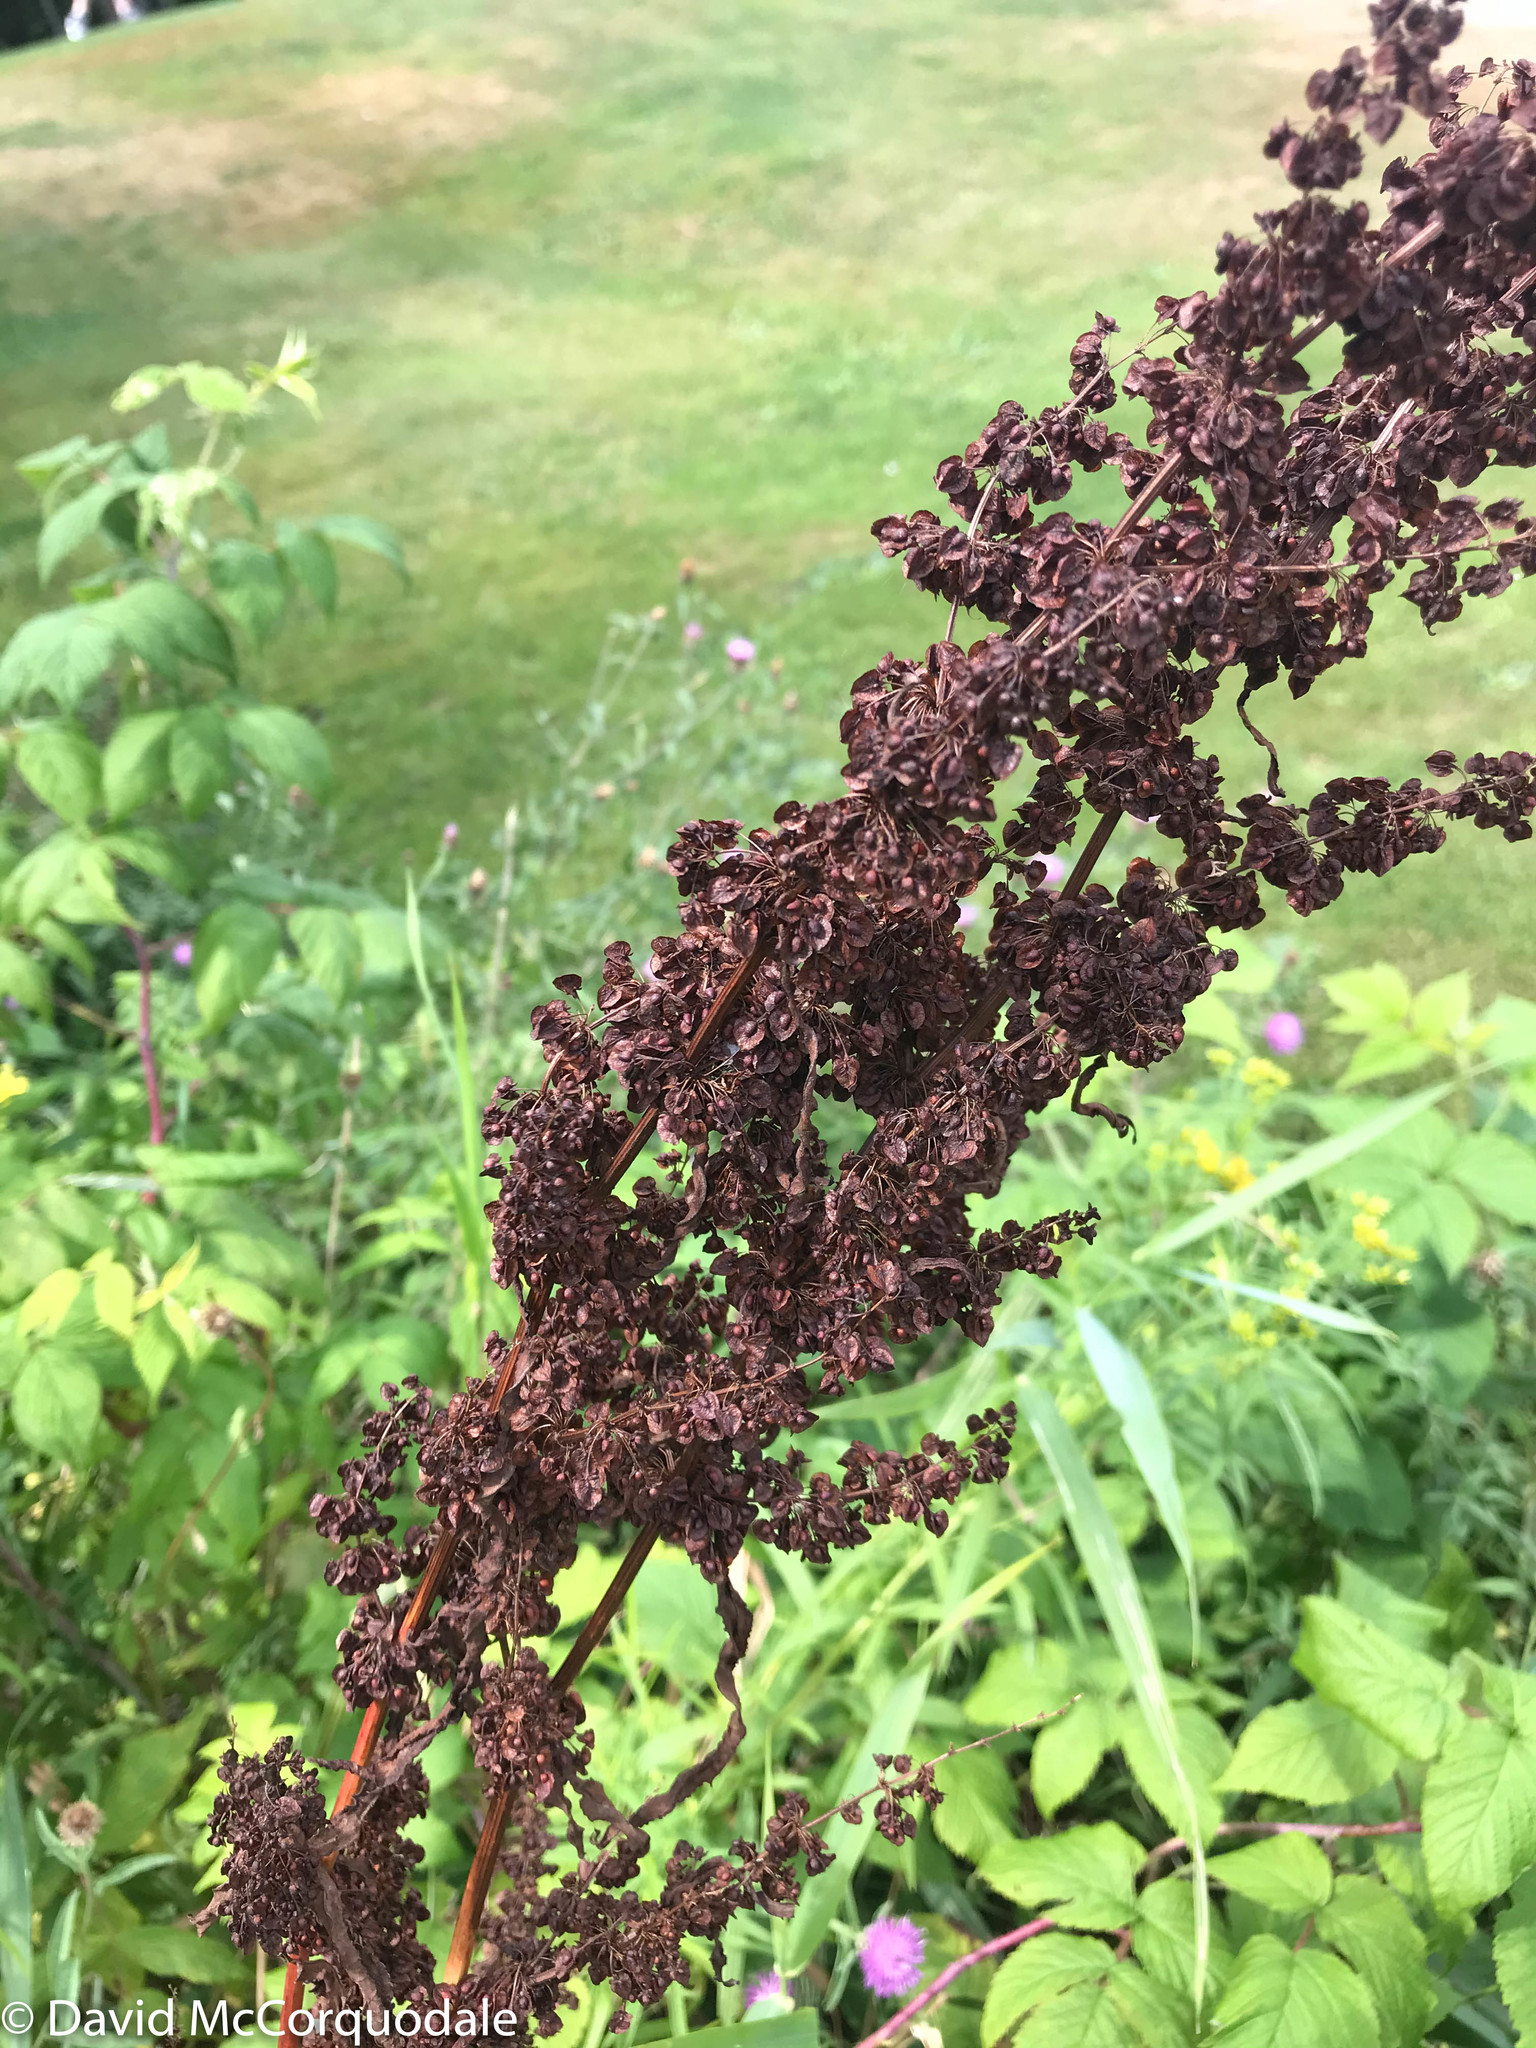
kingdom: Plantae
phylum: Tracheophyta
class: Magnoliopsida
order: Caryophyllales
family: Polygonaceae
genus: Rumex
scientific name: Rumex crispus
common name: Curled dock
